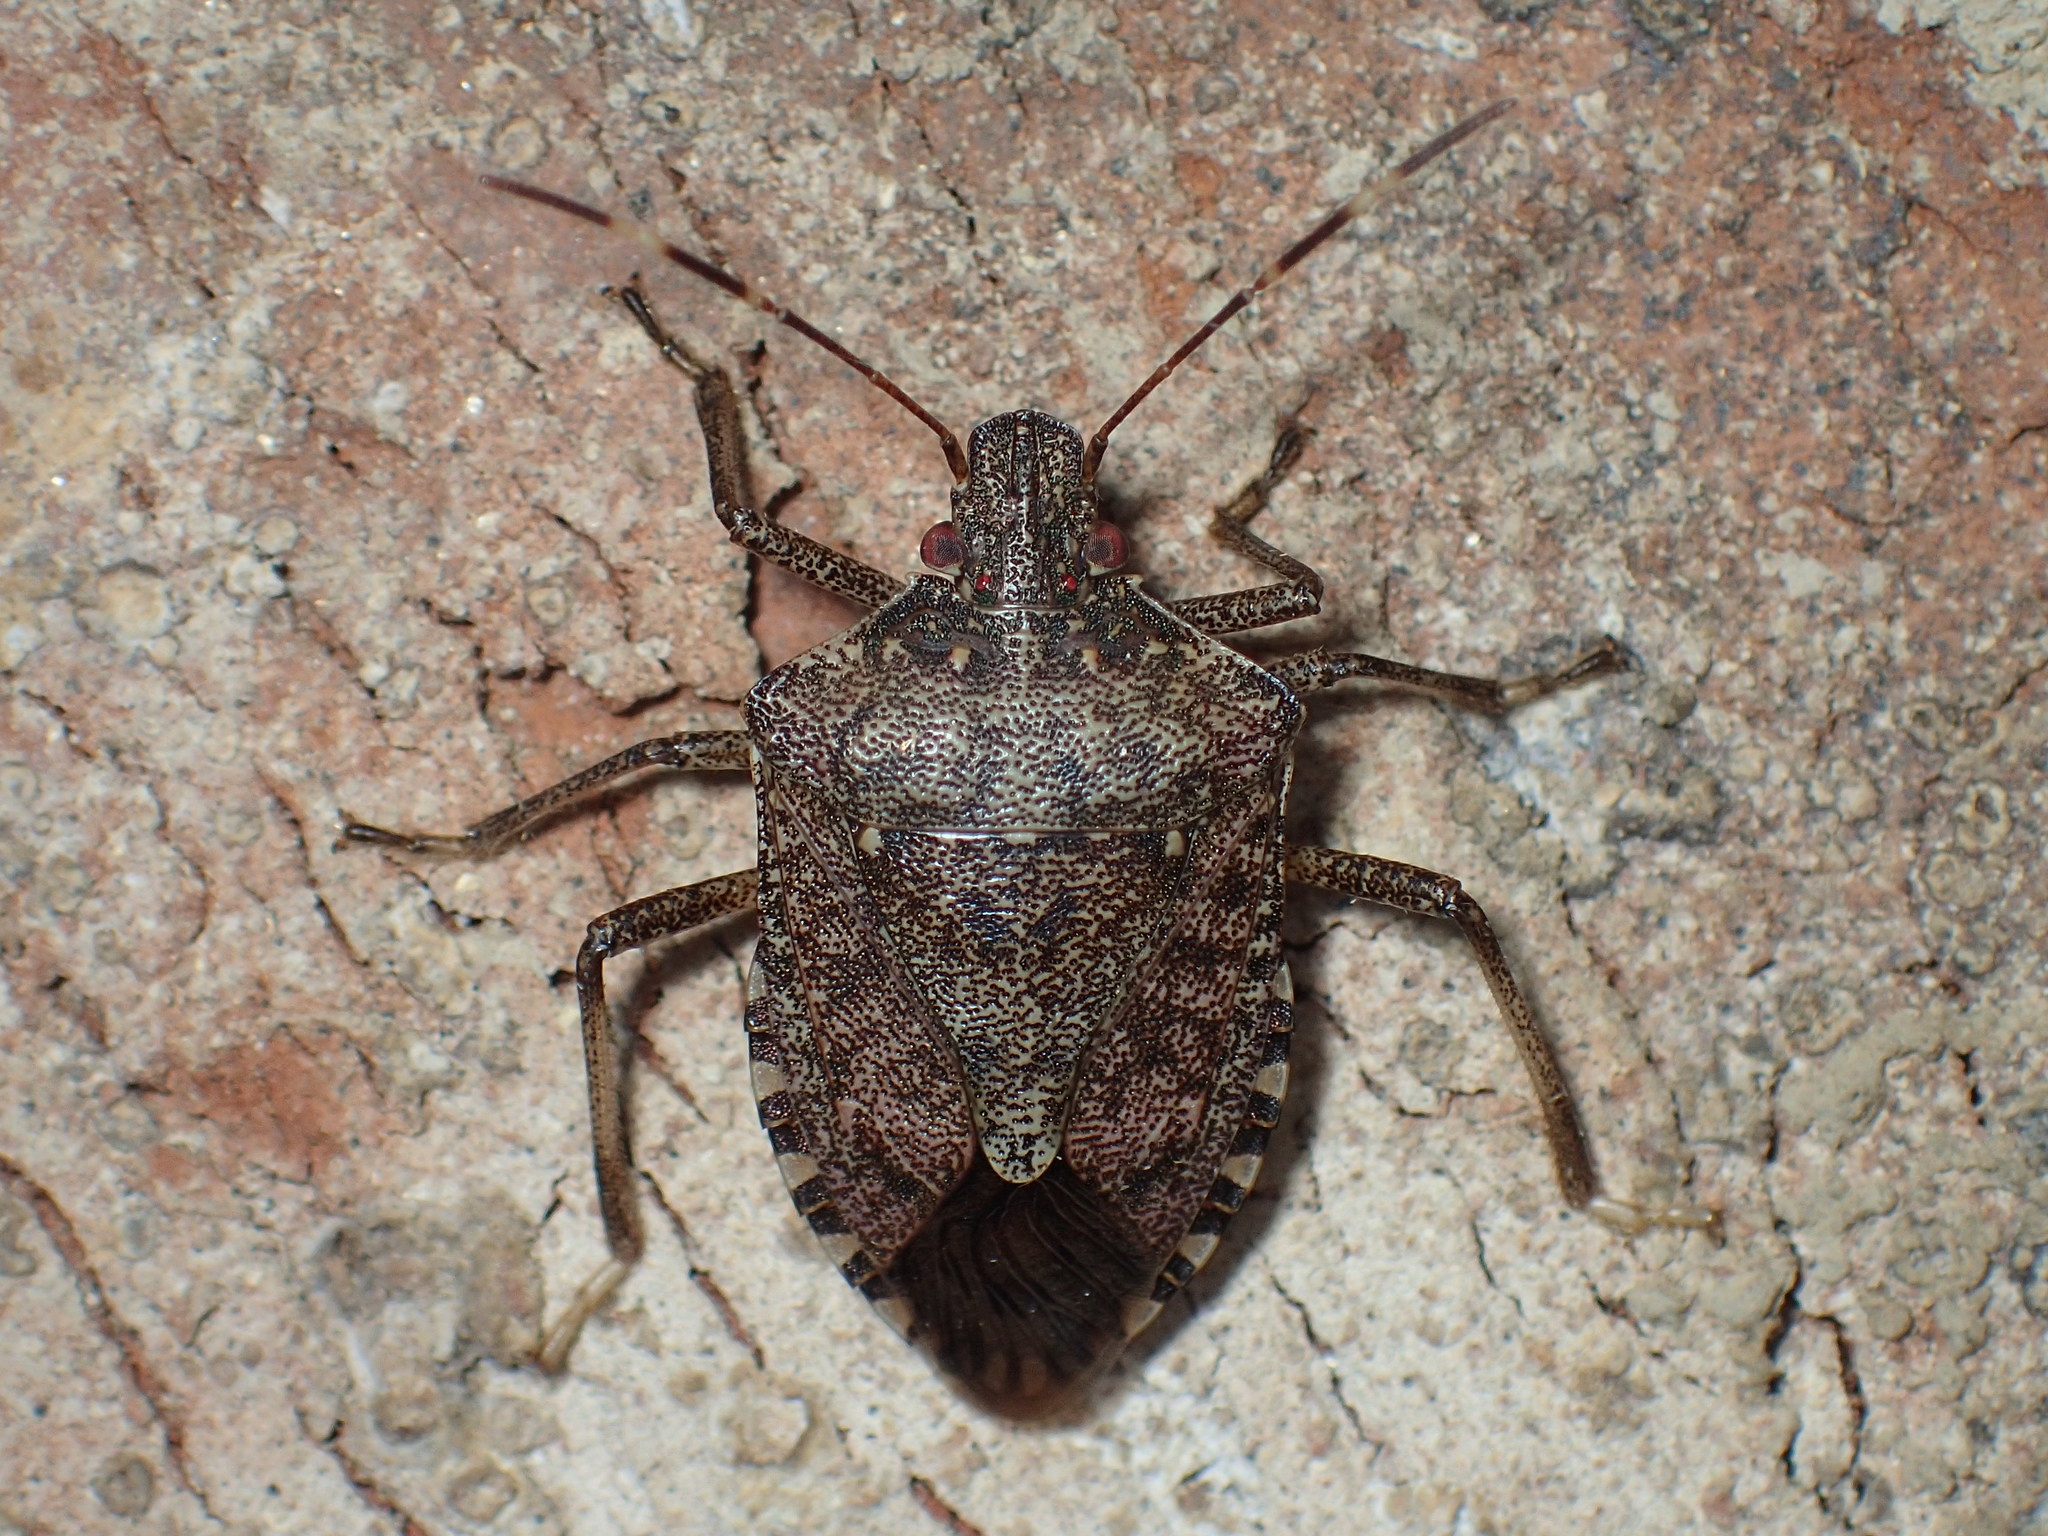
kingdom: Animalia
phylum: Arthropoda
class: Insecta
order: Hemiptera
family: Pentatomidae
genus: Halyomorpha
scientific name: Halyomorpha halys
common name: Brown marmorated stink bug
